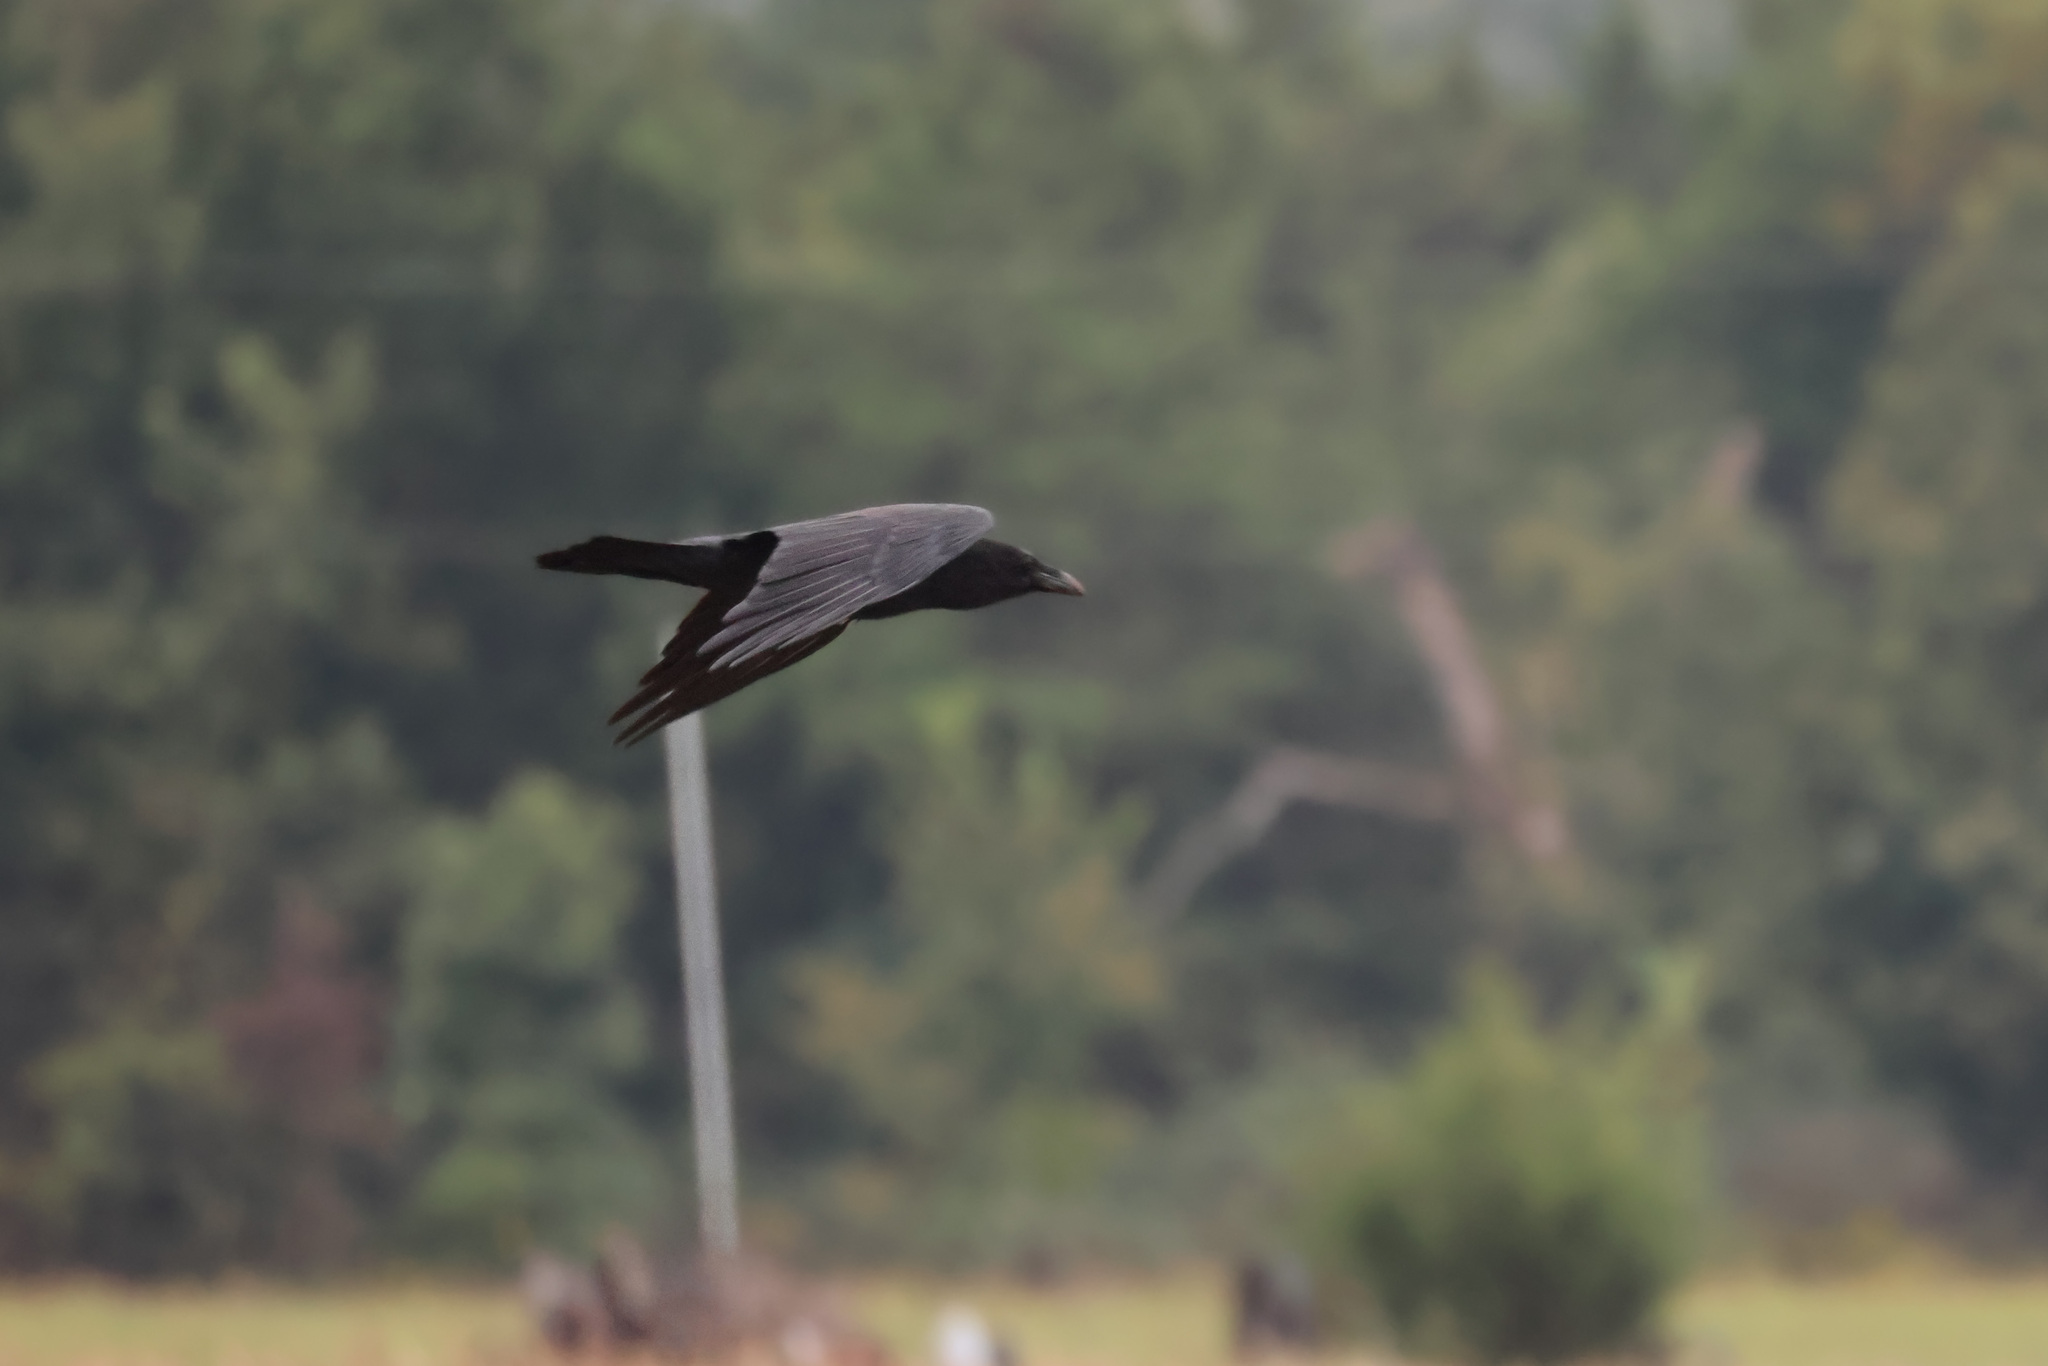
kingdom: Animalia
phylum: Chordata
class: Aves
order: Passeriformes
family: Corvidae
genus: Corvus
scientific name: Corvus corax
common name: Common raven
